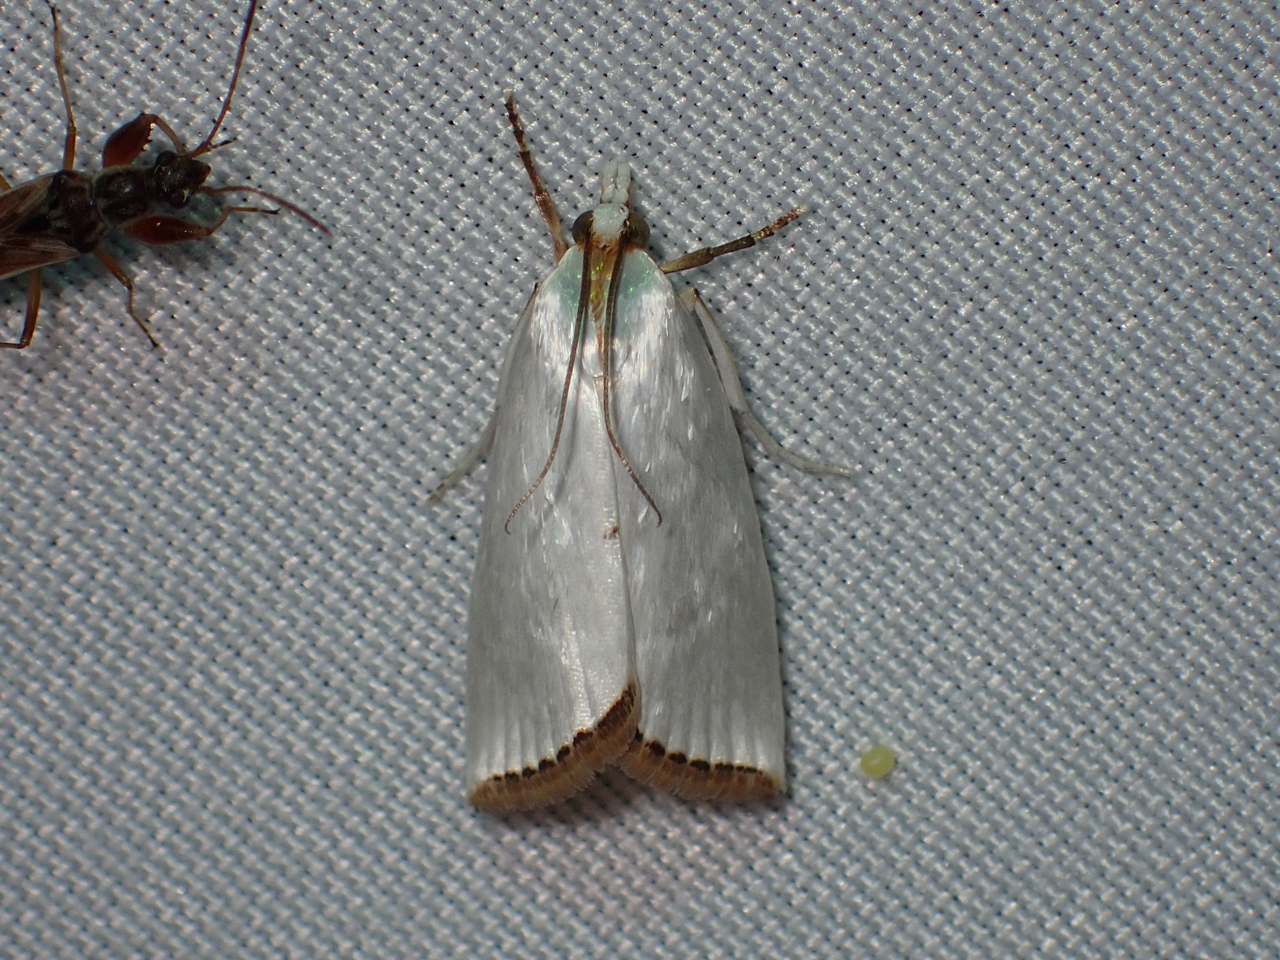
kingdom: Animalia
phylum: Arthropoda
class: Insecta
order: Lepidoptera
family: Crambidae
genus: Argyria
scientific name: Argyria nivalis
